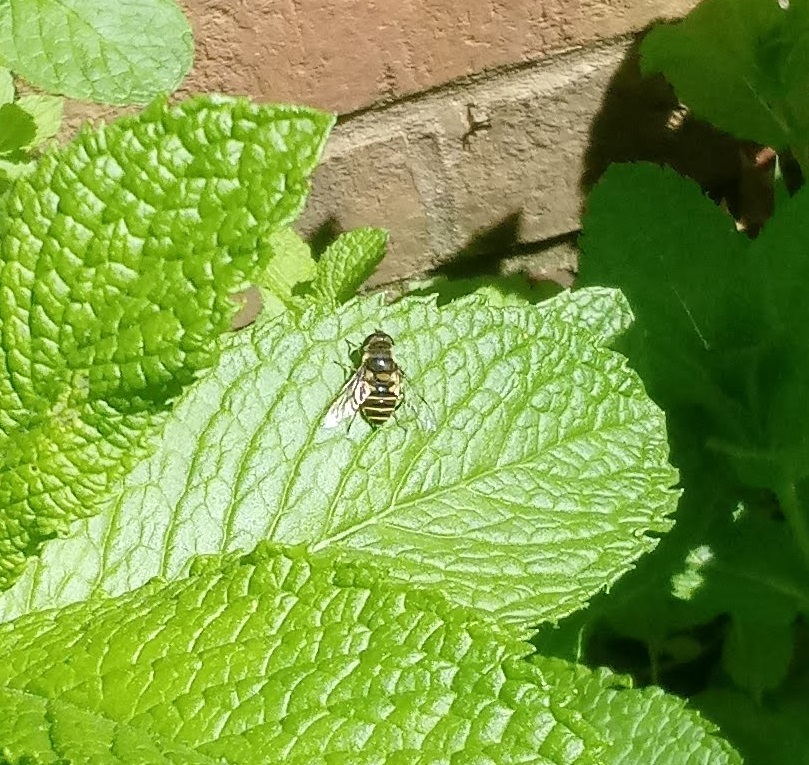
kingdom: Animalia
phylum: Arthropoda
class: Insecta
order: Diptera
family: Syrphidae
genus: Eristalis
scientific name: Eristalis transversa
